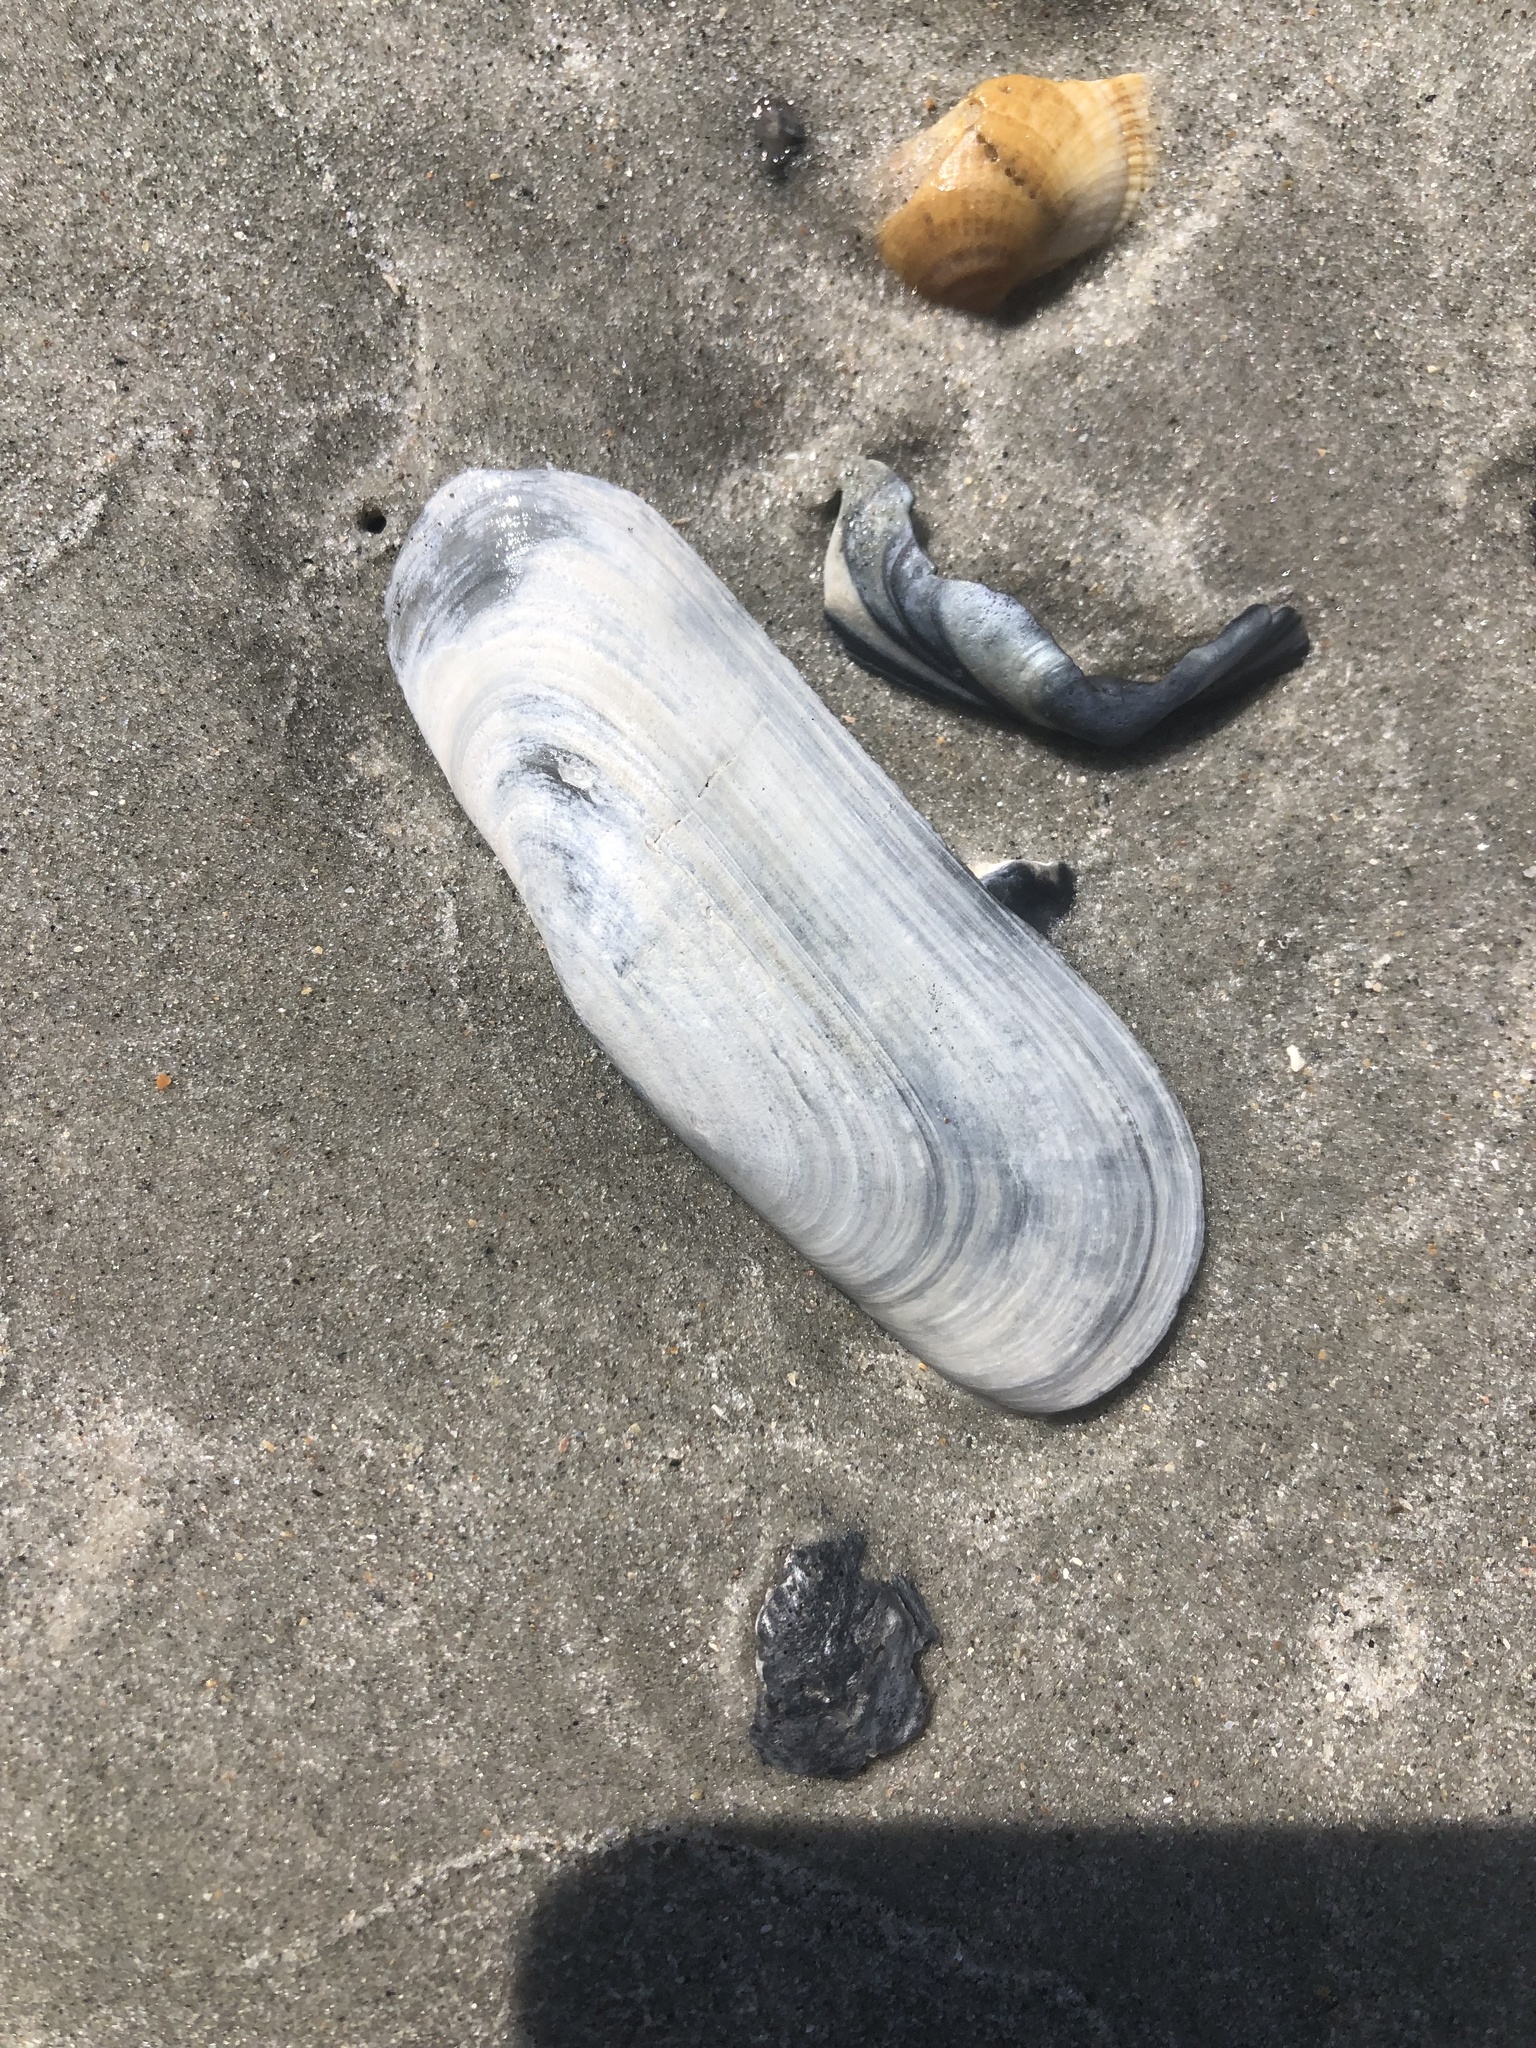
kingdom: Animalia
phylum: Mollusca
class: Bivalvia
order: Cardiida
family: Solecurtidae
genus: Tagelus
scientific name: Tagelus plebeius
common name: Stout tagelus
